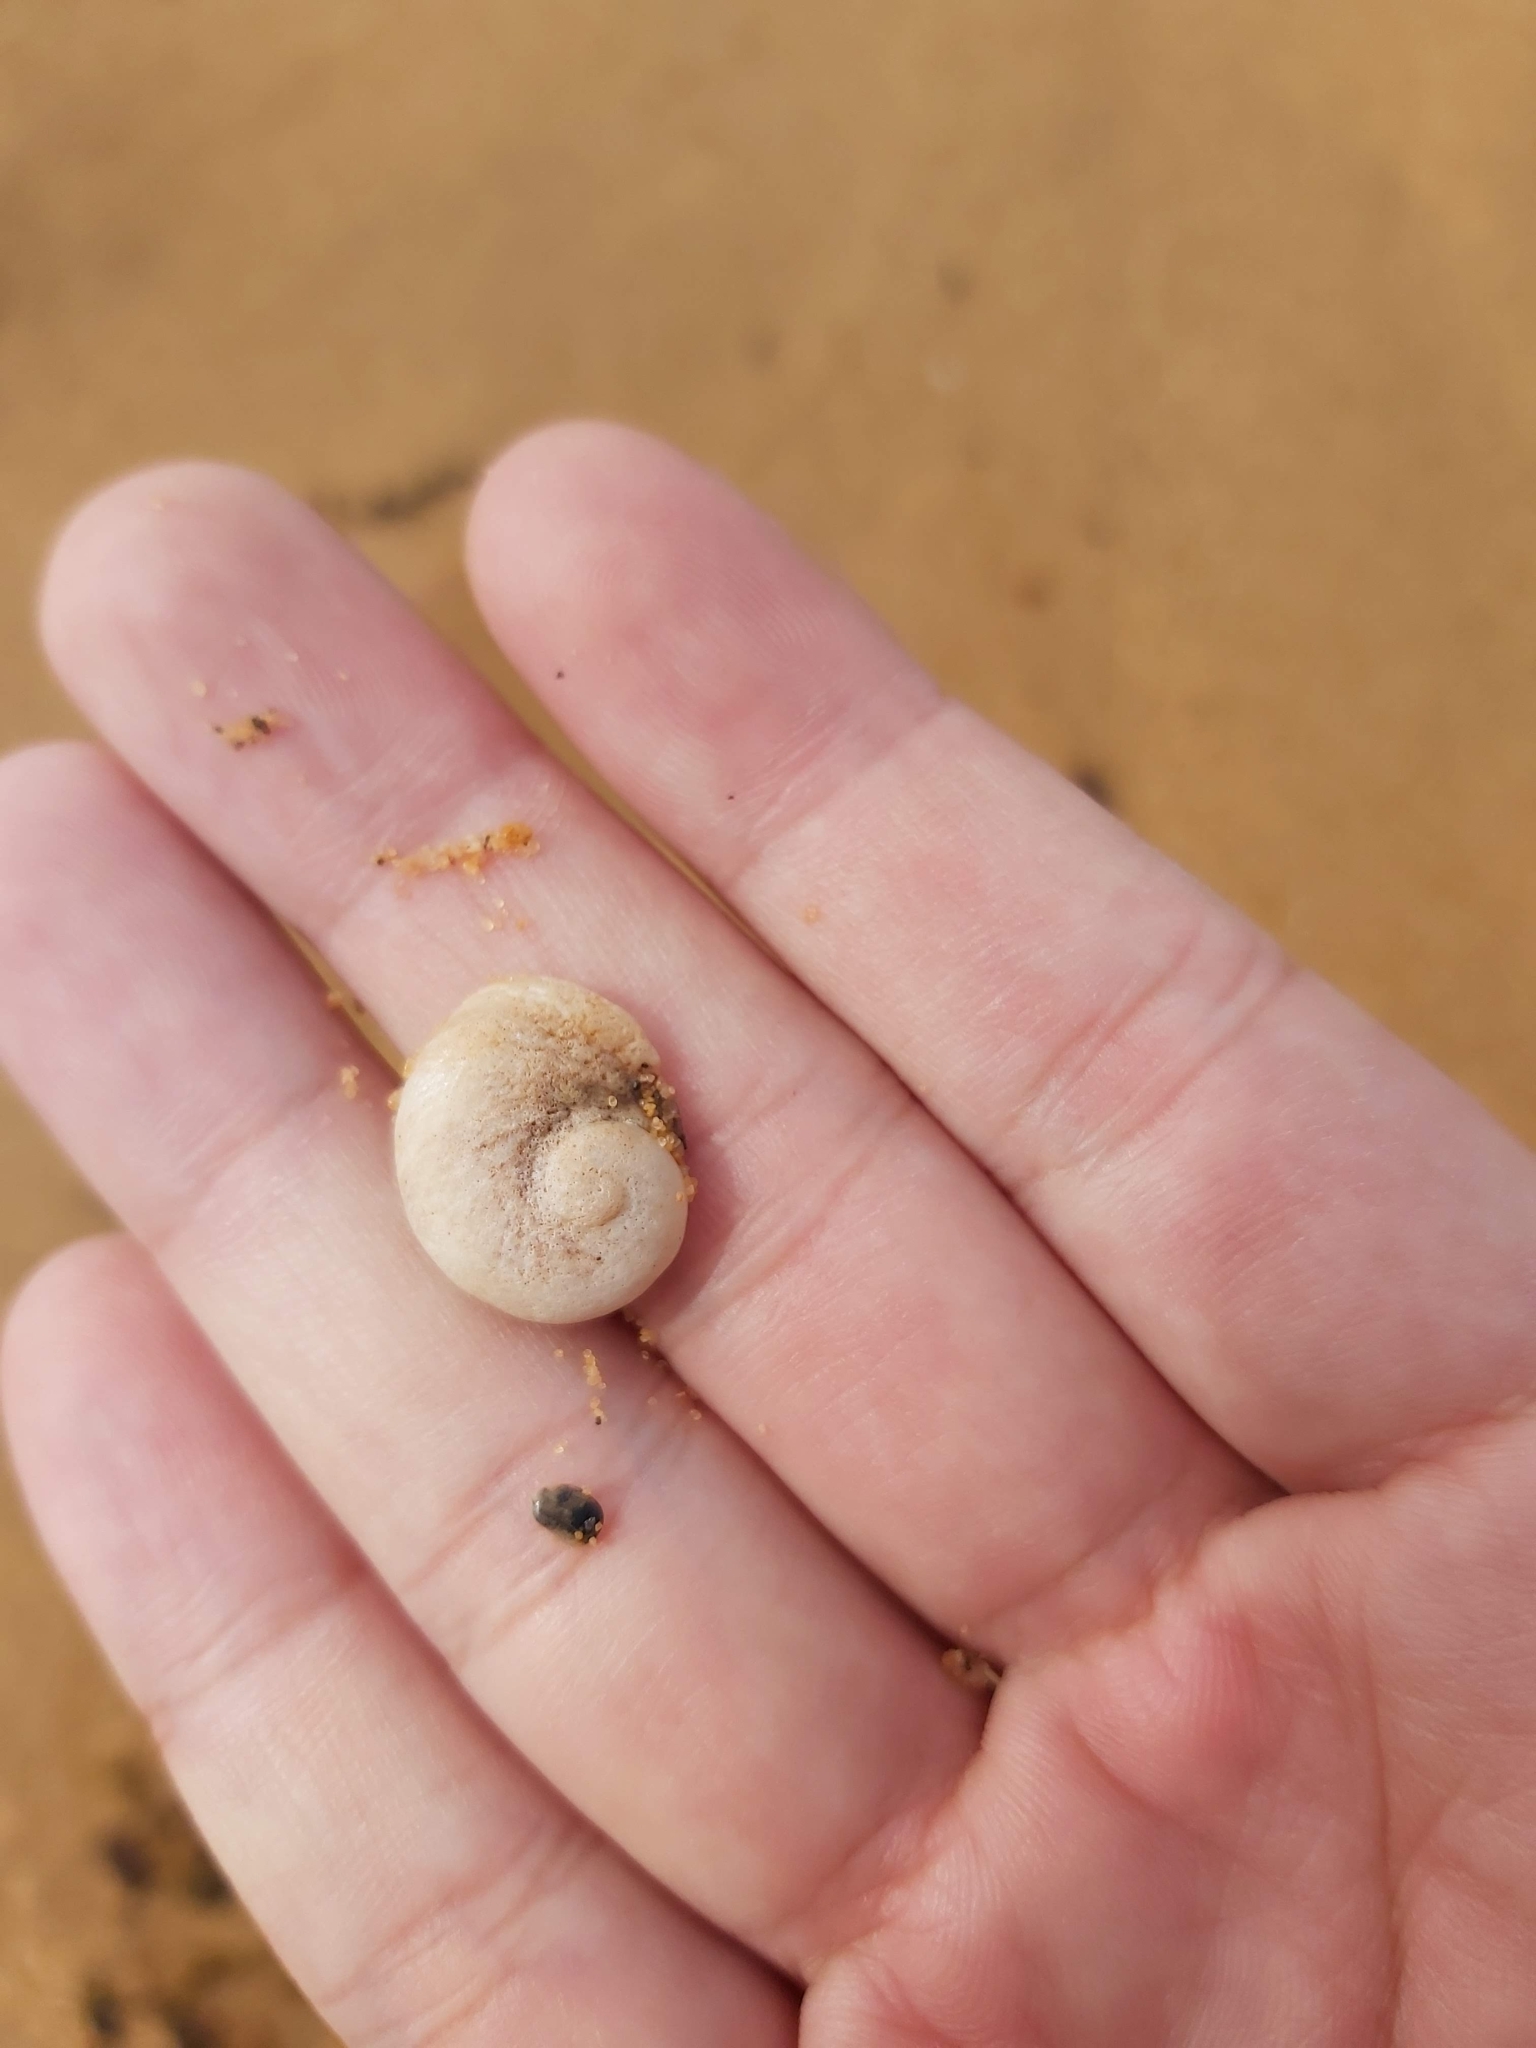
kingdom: Animalia
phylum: Mollusca
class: Gastropoda
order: Seguenziida
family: Chilodontaidae
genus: Granata
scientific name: Granata imbricata
